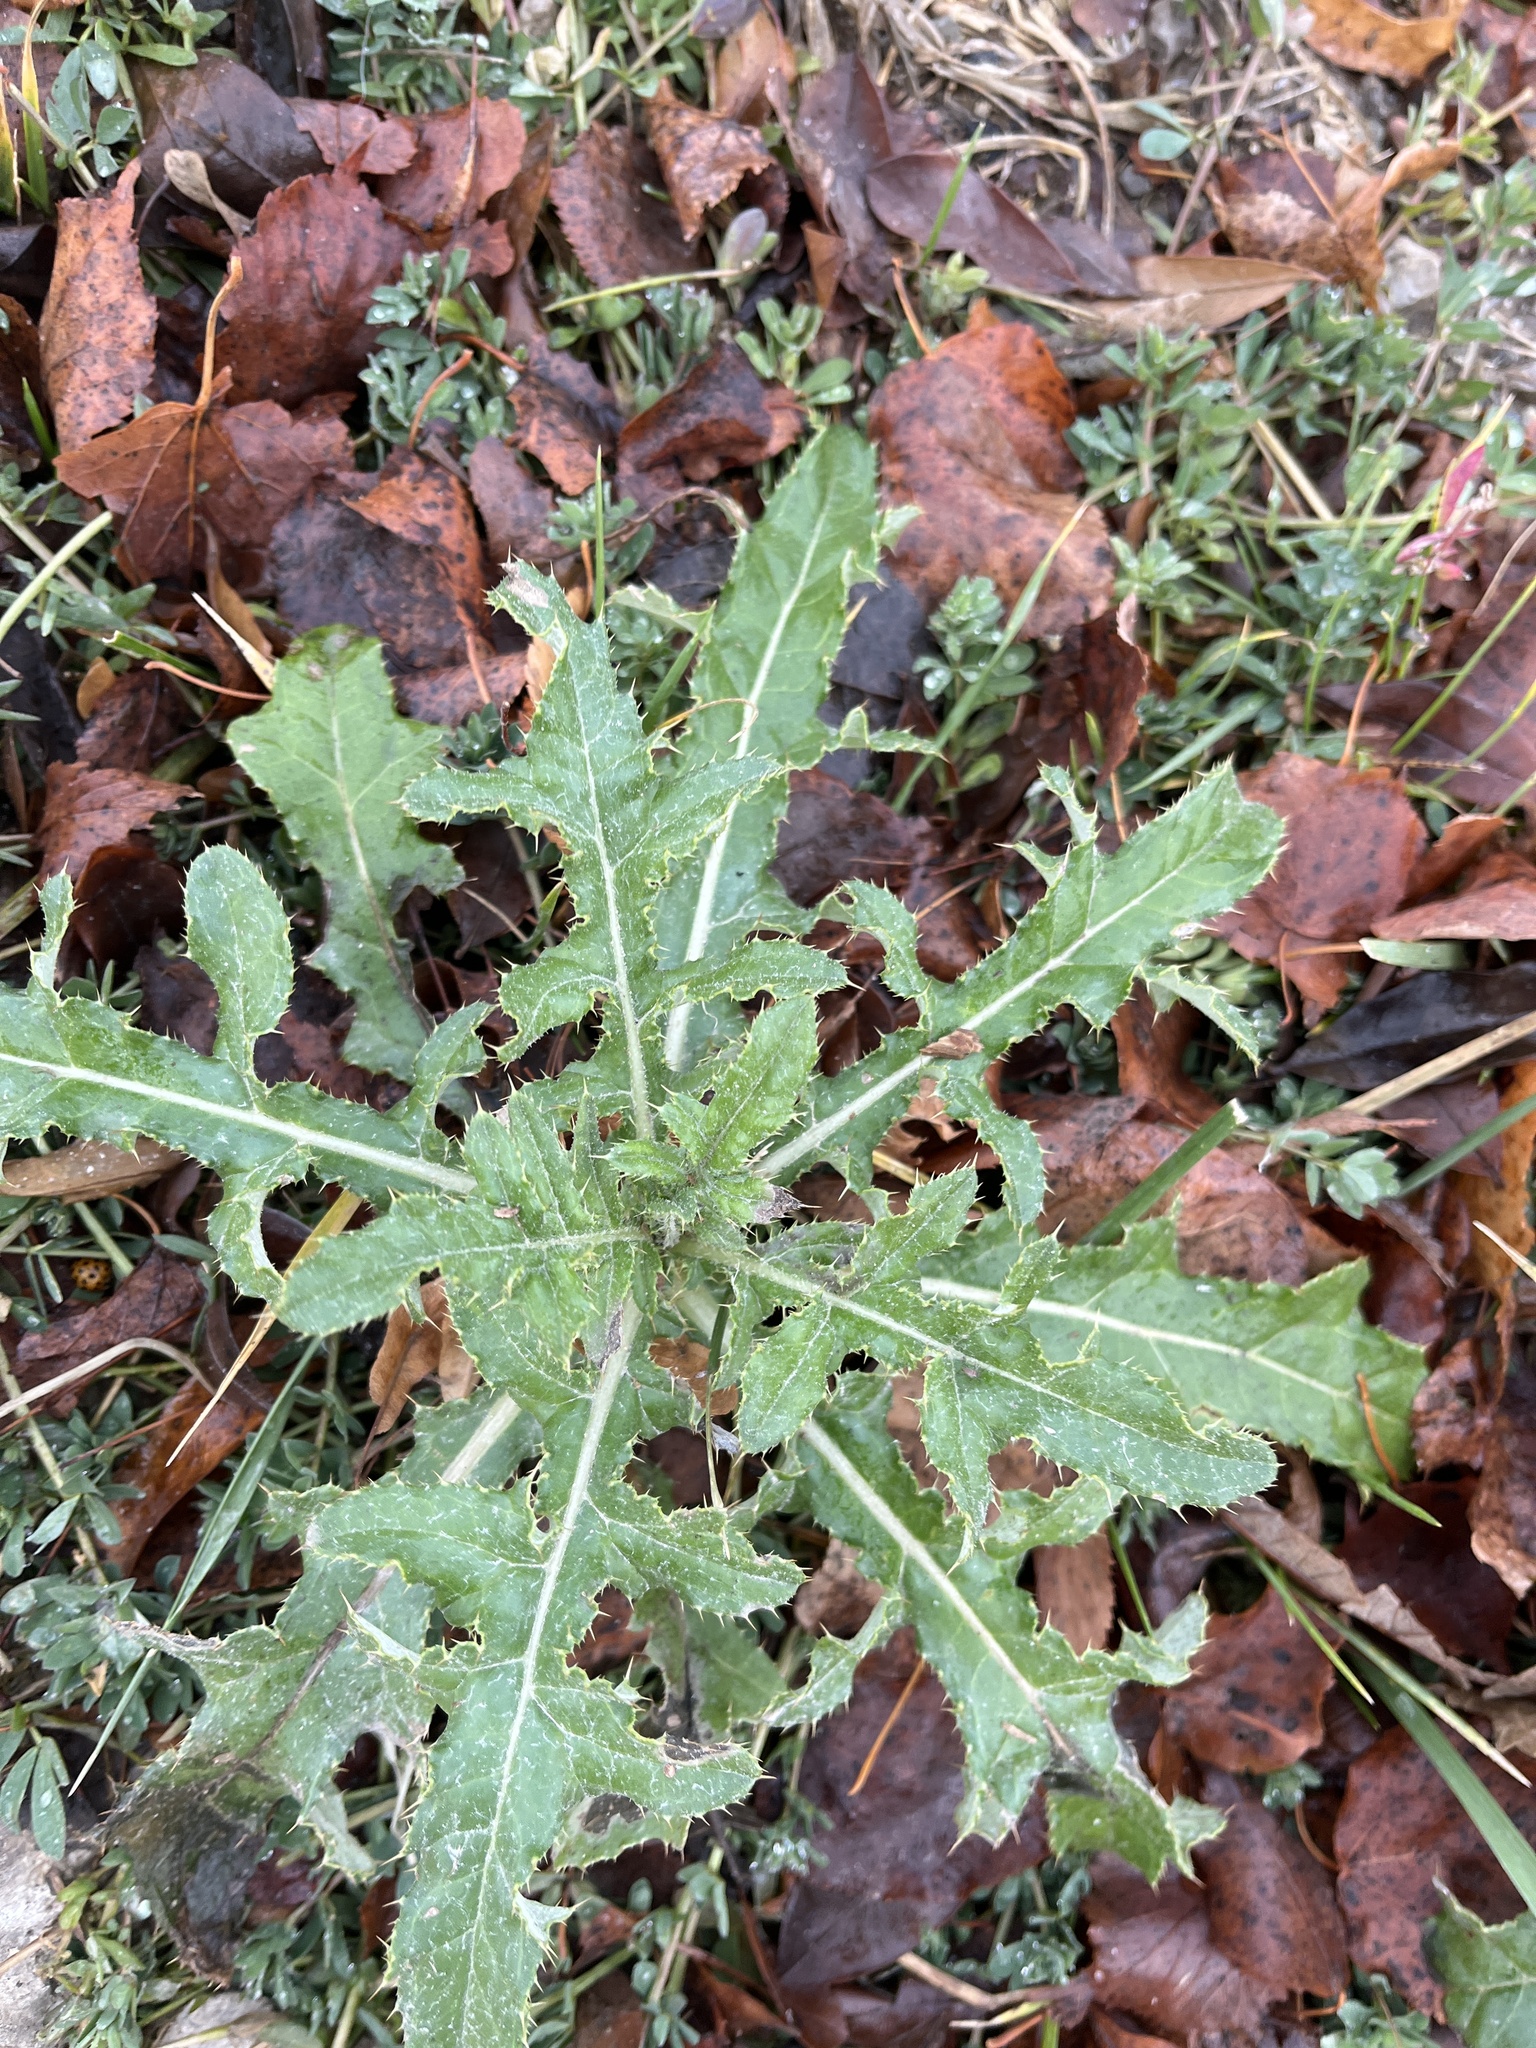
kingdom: Plantae
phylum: Tracheophyta
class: Magnoliopsida
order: Asterales
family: Asteraceae
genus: Cirsium
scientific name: Cirsium arvense
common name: Creeping thistle
